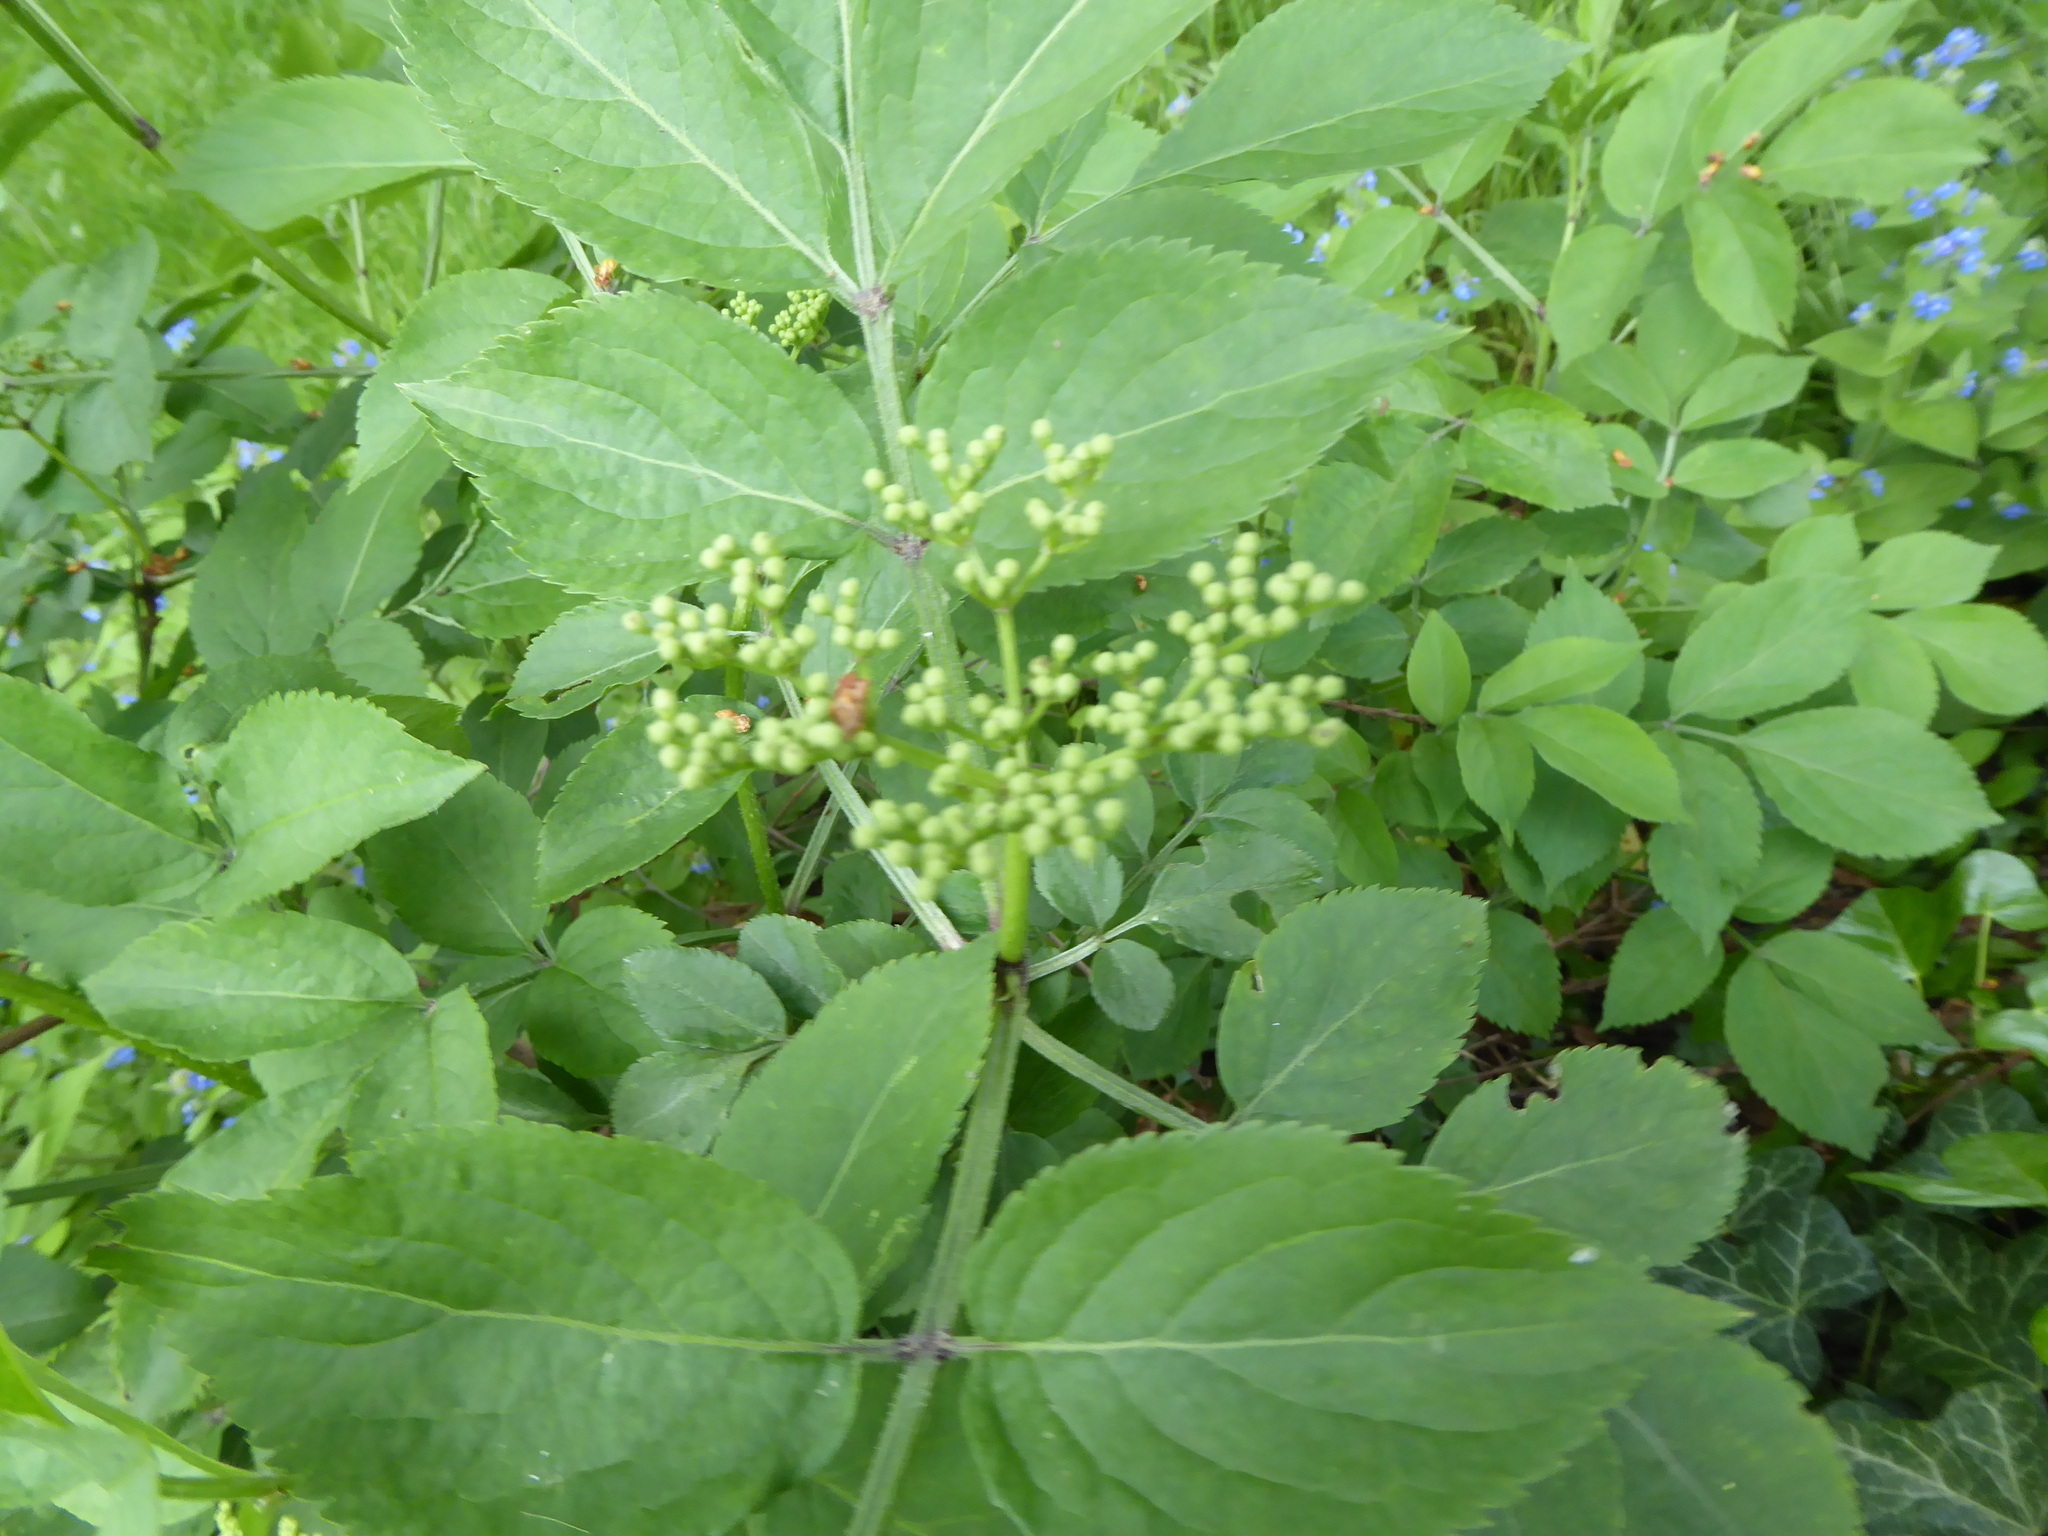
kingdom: Plantae
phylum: Tracheophyta
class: Magnoliopsida
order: Dipsacales
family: Viburnaceae
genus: Sambucus
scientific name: Sambucus nigra
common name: Elder
